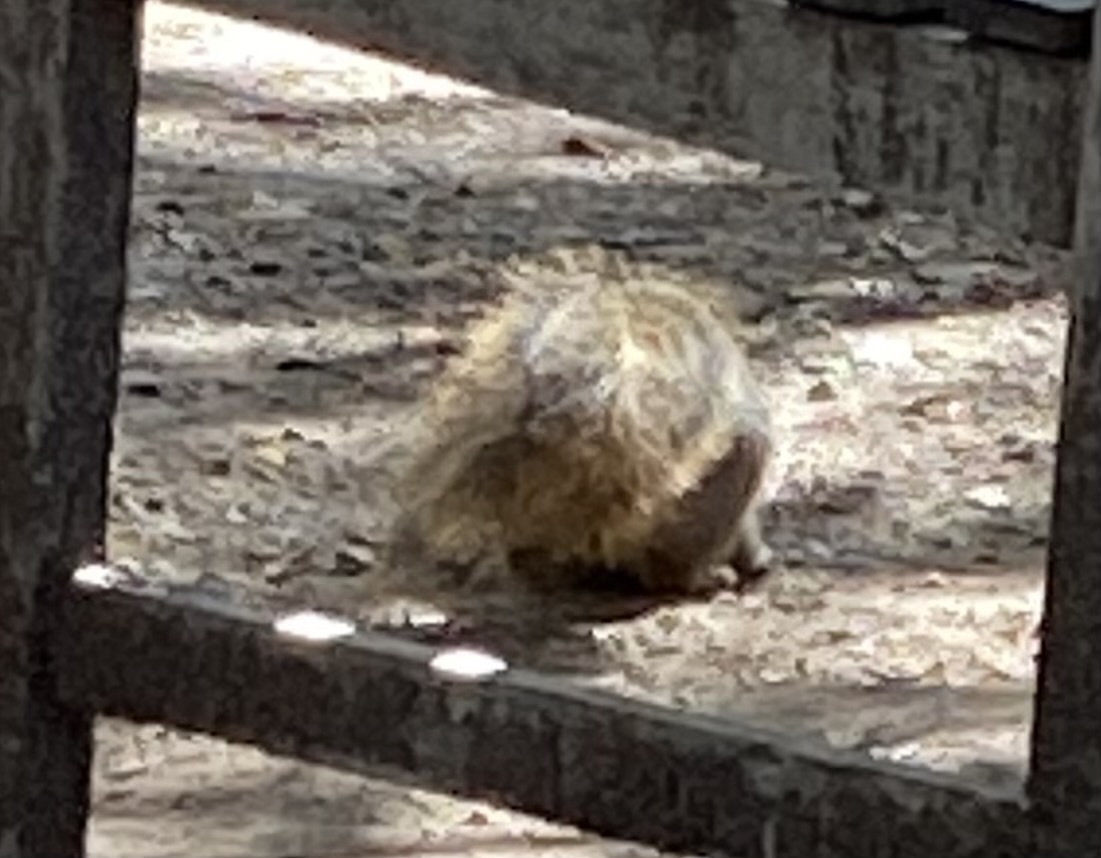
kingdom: Animalia
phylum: Chordata
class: Mammalia
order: Rodentia
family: Sciuridae
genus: Sciurus
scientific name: Sciurus niger
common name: Fox squirrel
